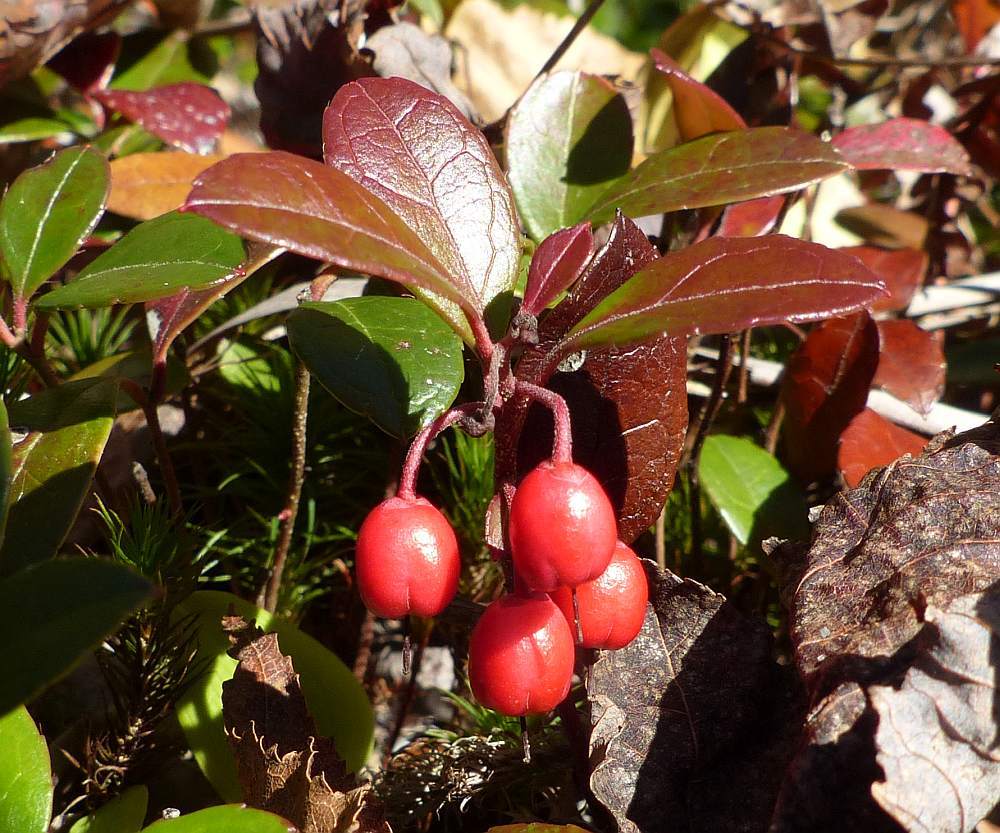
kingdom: Plantae
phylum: Tracheophyta
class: Magnoliopsida
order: Ericales
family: Ericaceae
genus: Gaultheria
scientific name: Gaultheria procumbens
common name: Checkerberry
